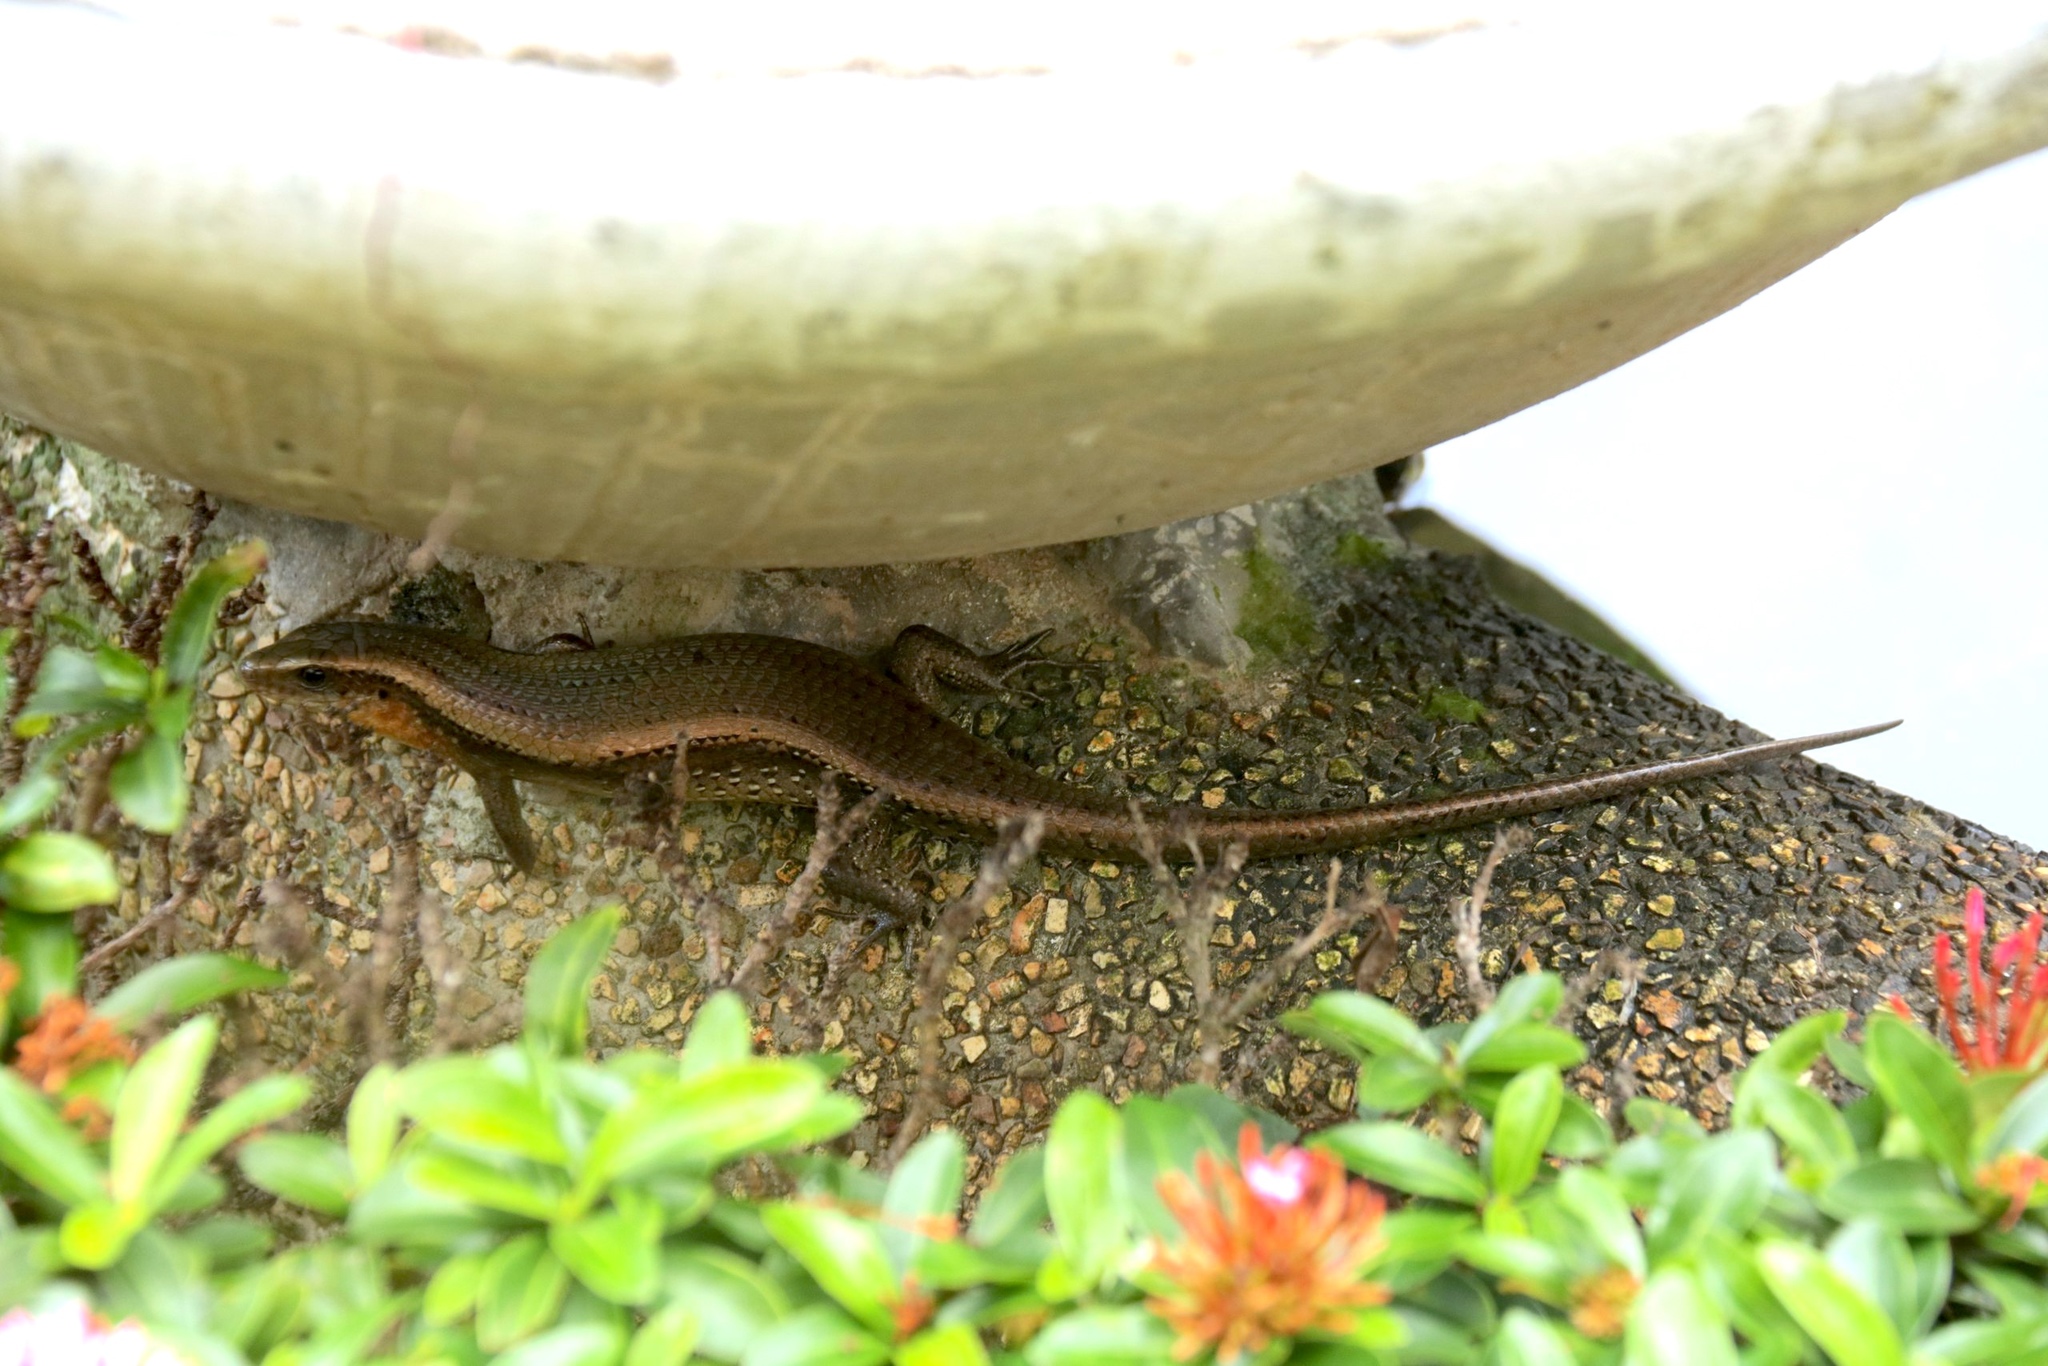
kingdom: Animalia
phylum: Chordata
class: Squamata
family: Scincidae
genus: Eutropis
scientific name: Eutropis multifasciata
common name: Common mabuya
